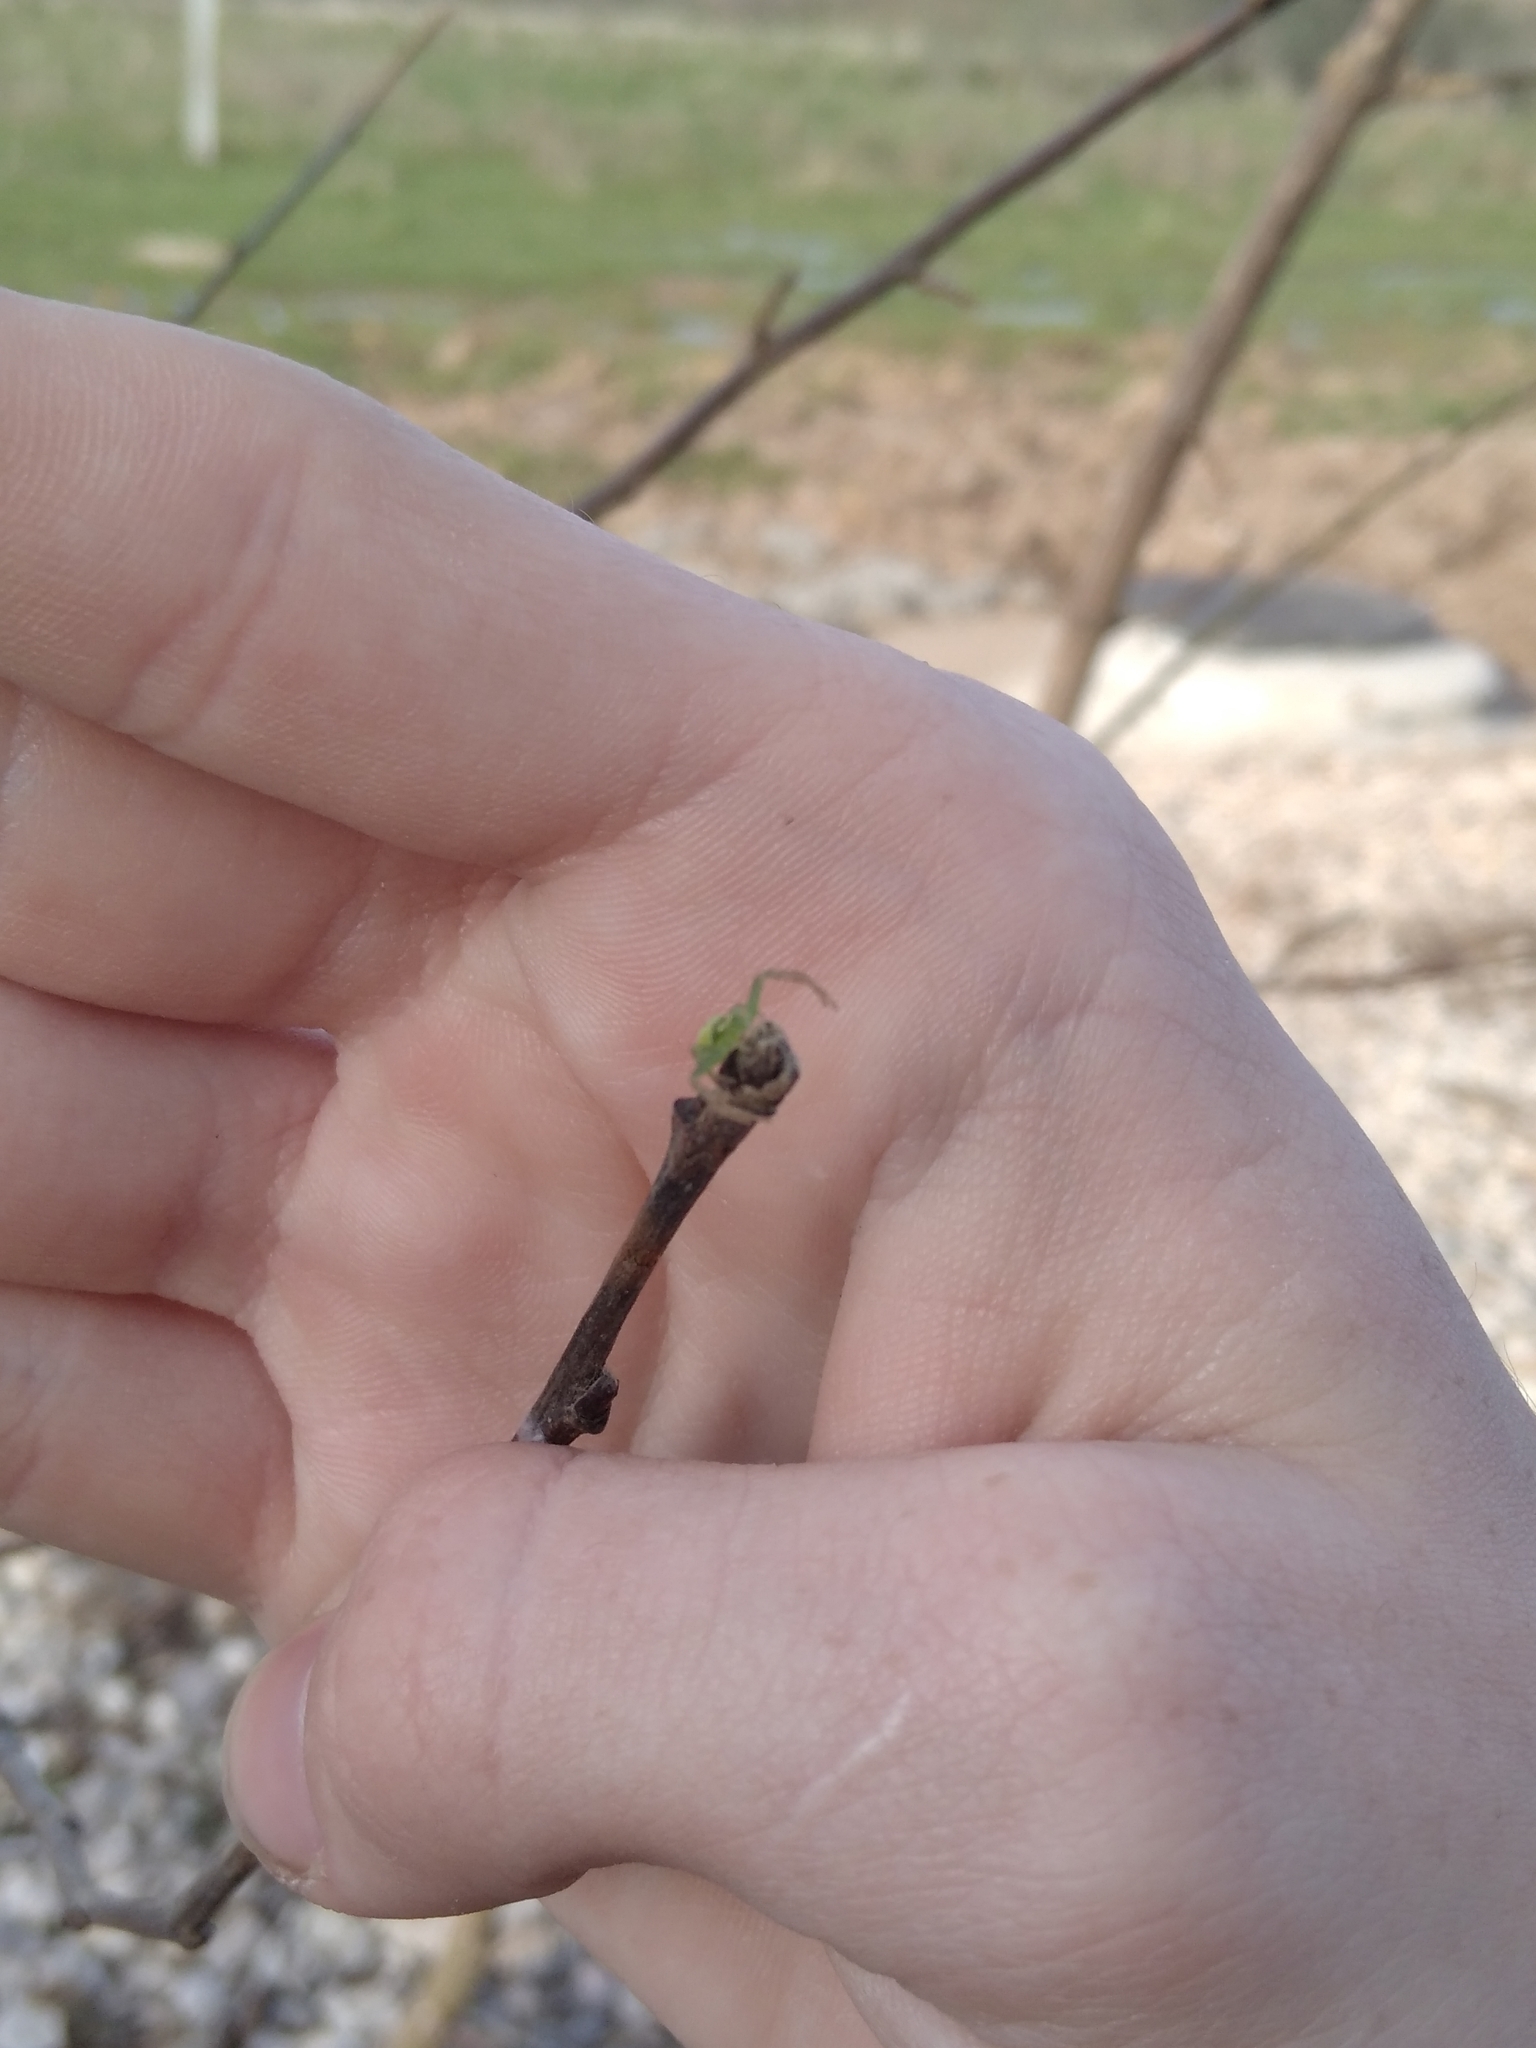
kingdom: Animalia
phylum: Arthropoda
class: Arachnida
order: Araneae
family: Thomisidae
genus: Ebrechtella
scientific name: Ebrechtella tricuspidata
